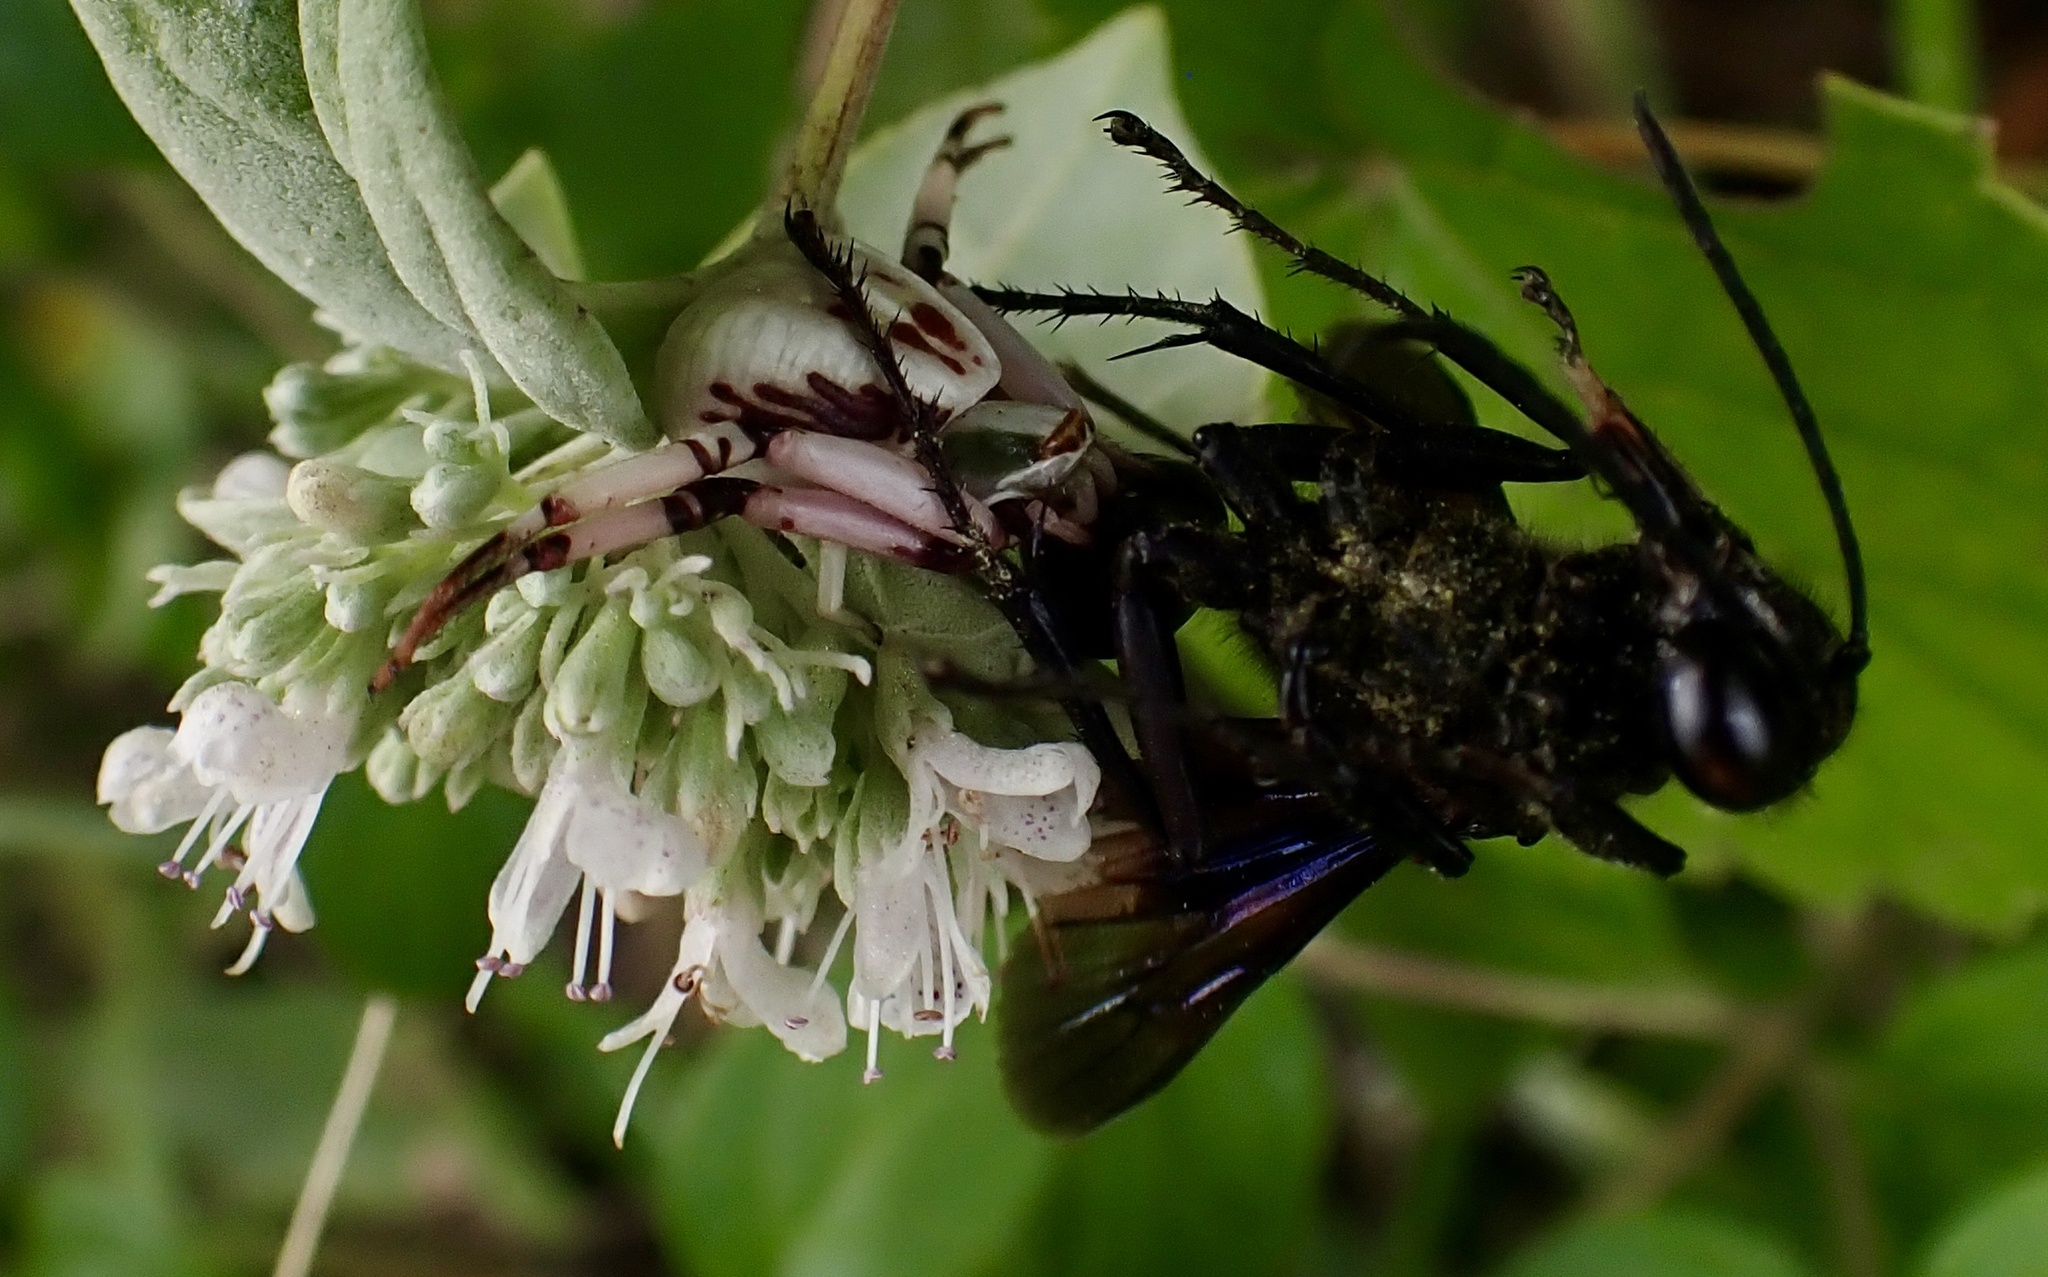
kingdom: Animalia
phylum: Arthropoda
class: Arachnida
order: Araneae
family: Thomisidae
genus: Misumenoides
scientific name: Misumenoides formosipes
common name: White-banded crab spider
